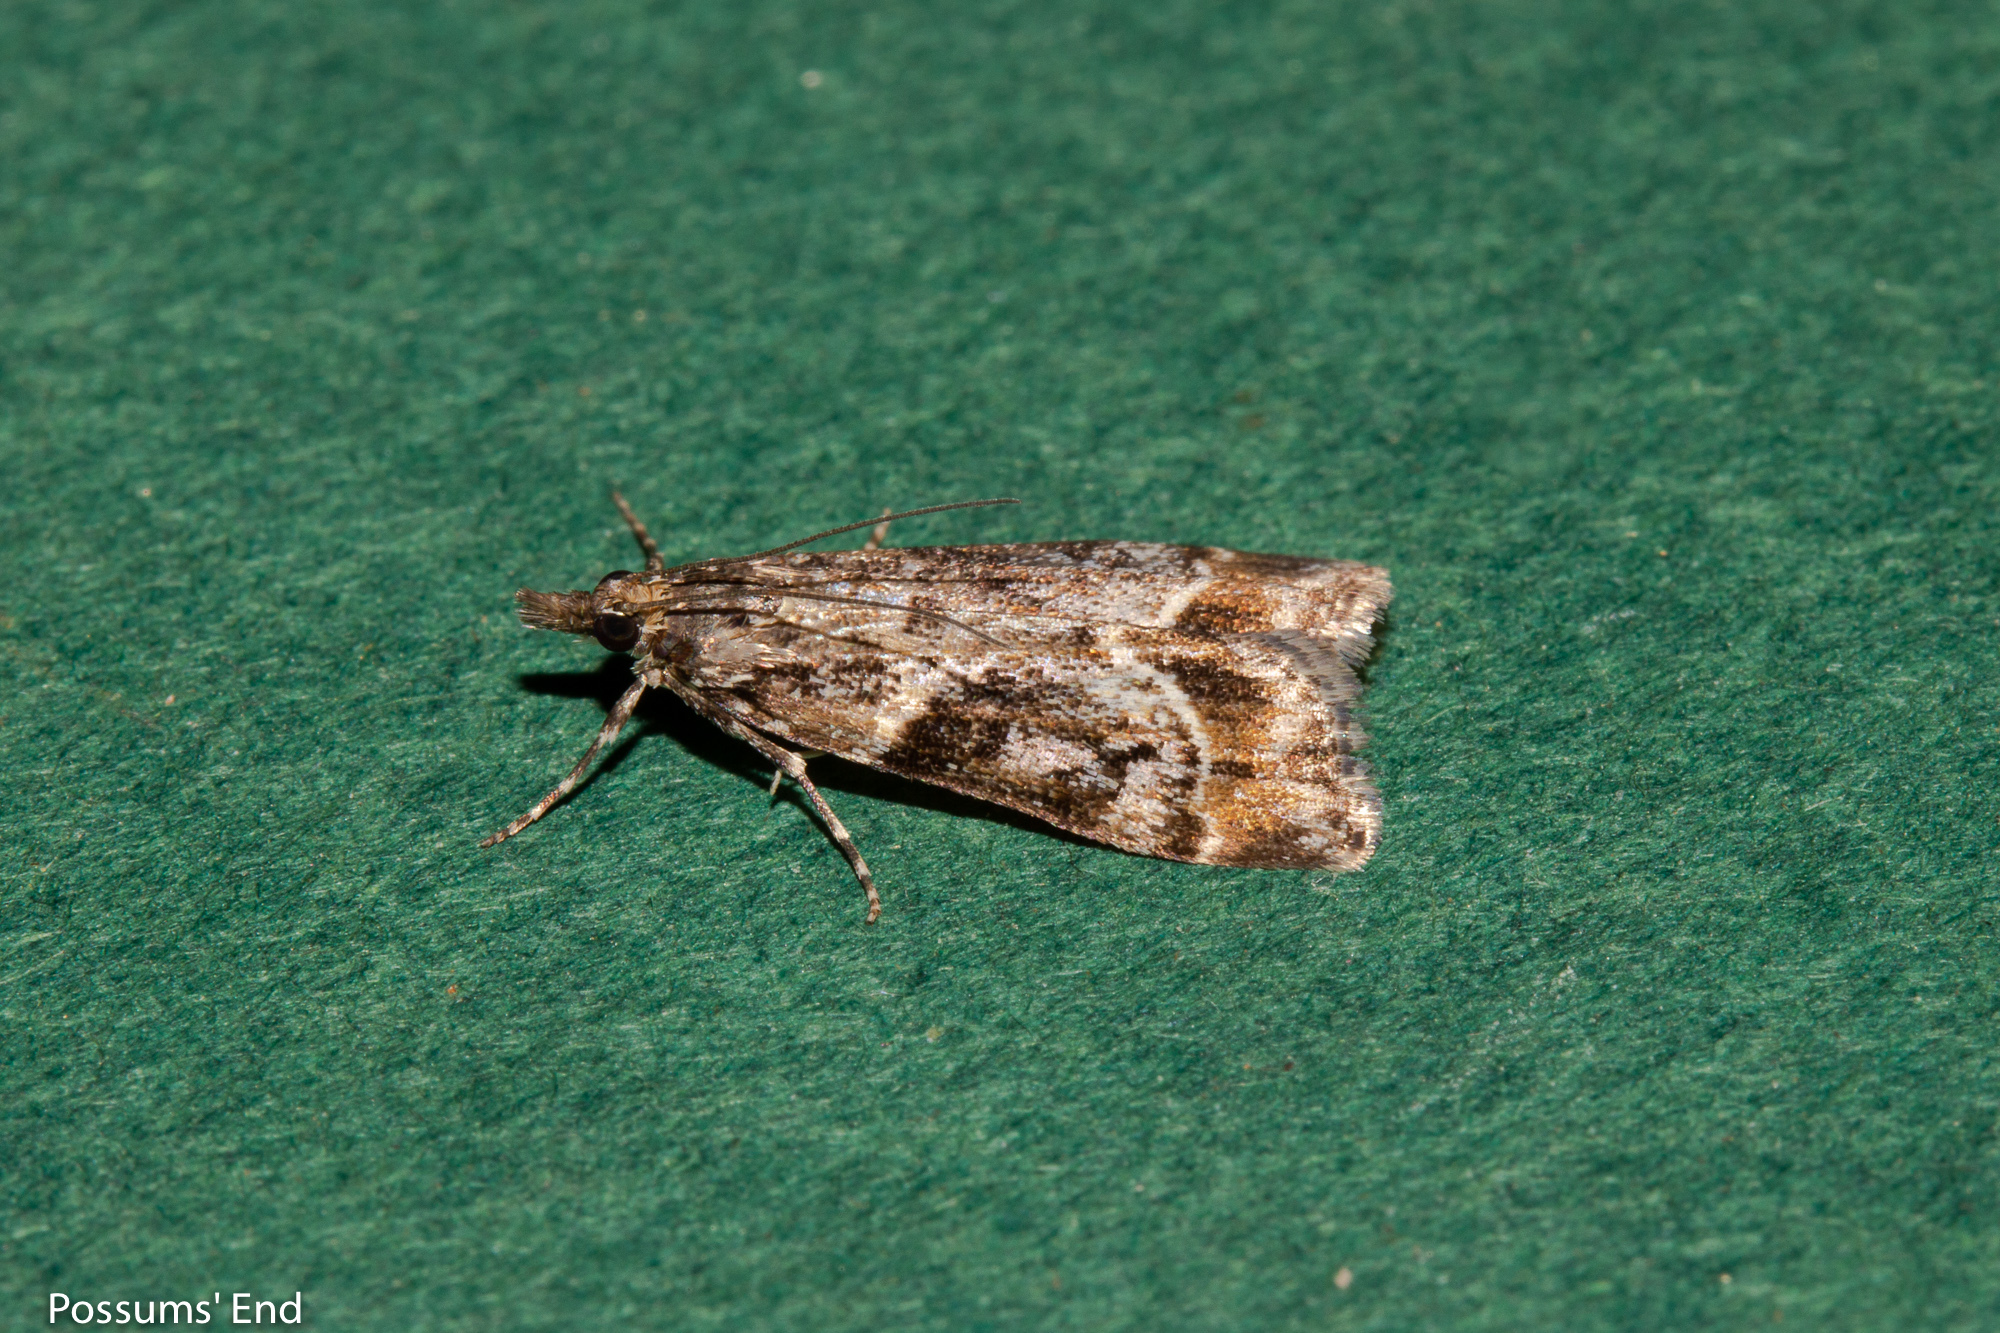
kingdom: Animalia
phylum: Arthropoda
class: Insecta
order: Lepidoptera
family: Crambidae
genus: Eudonia
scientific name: Eudonia legnota
